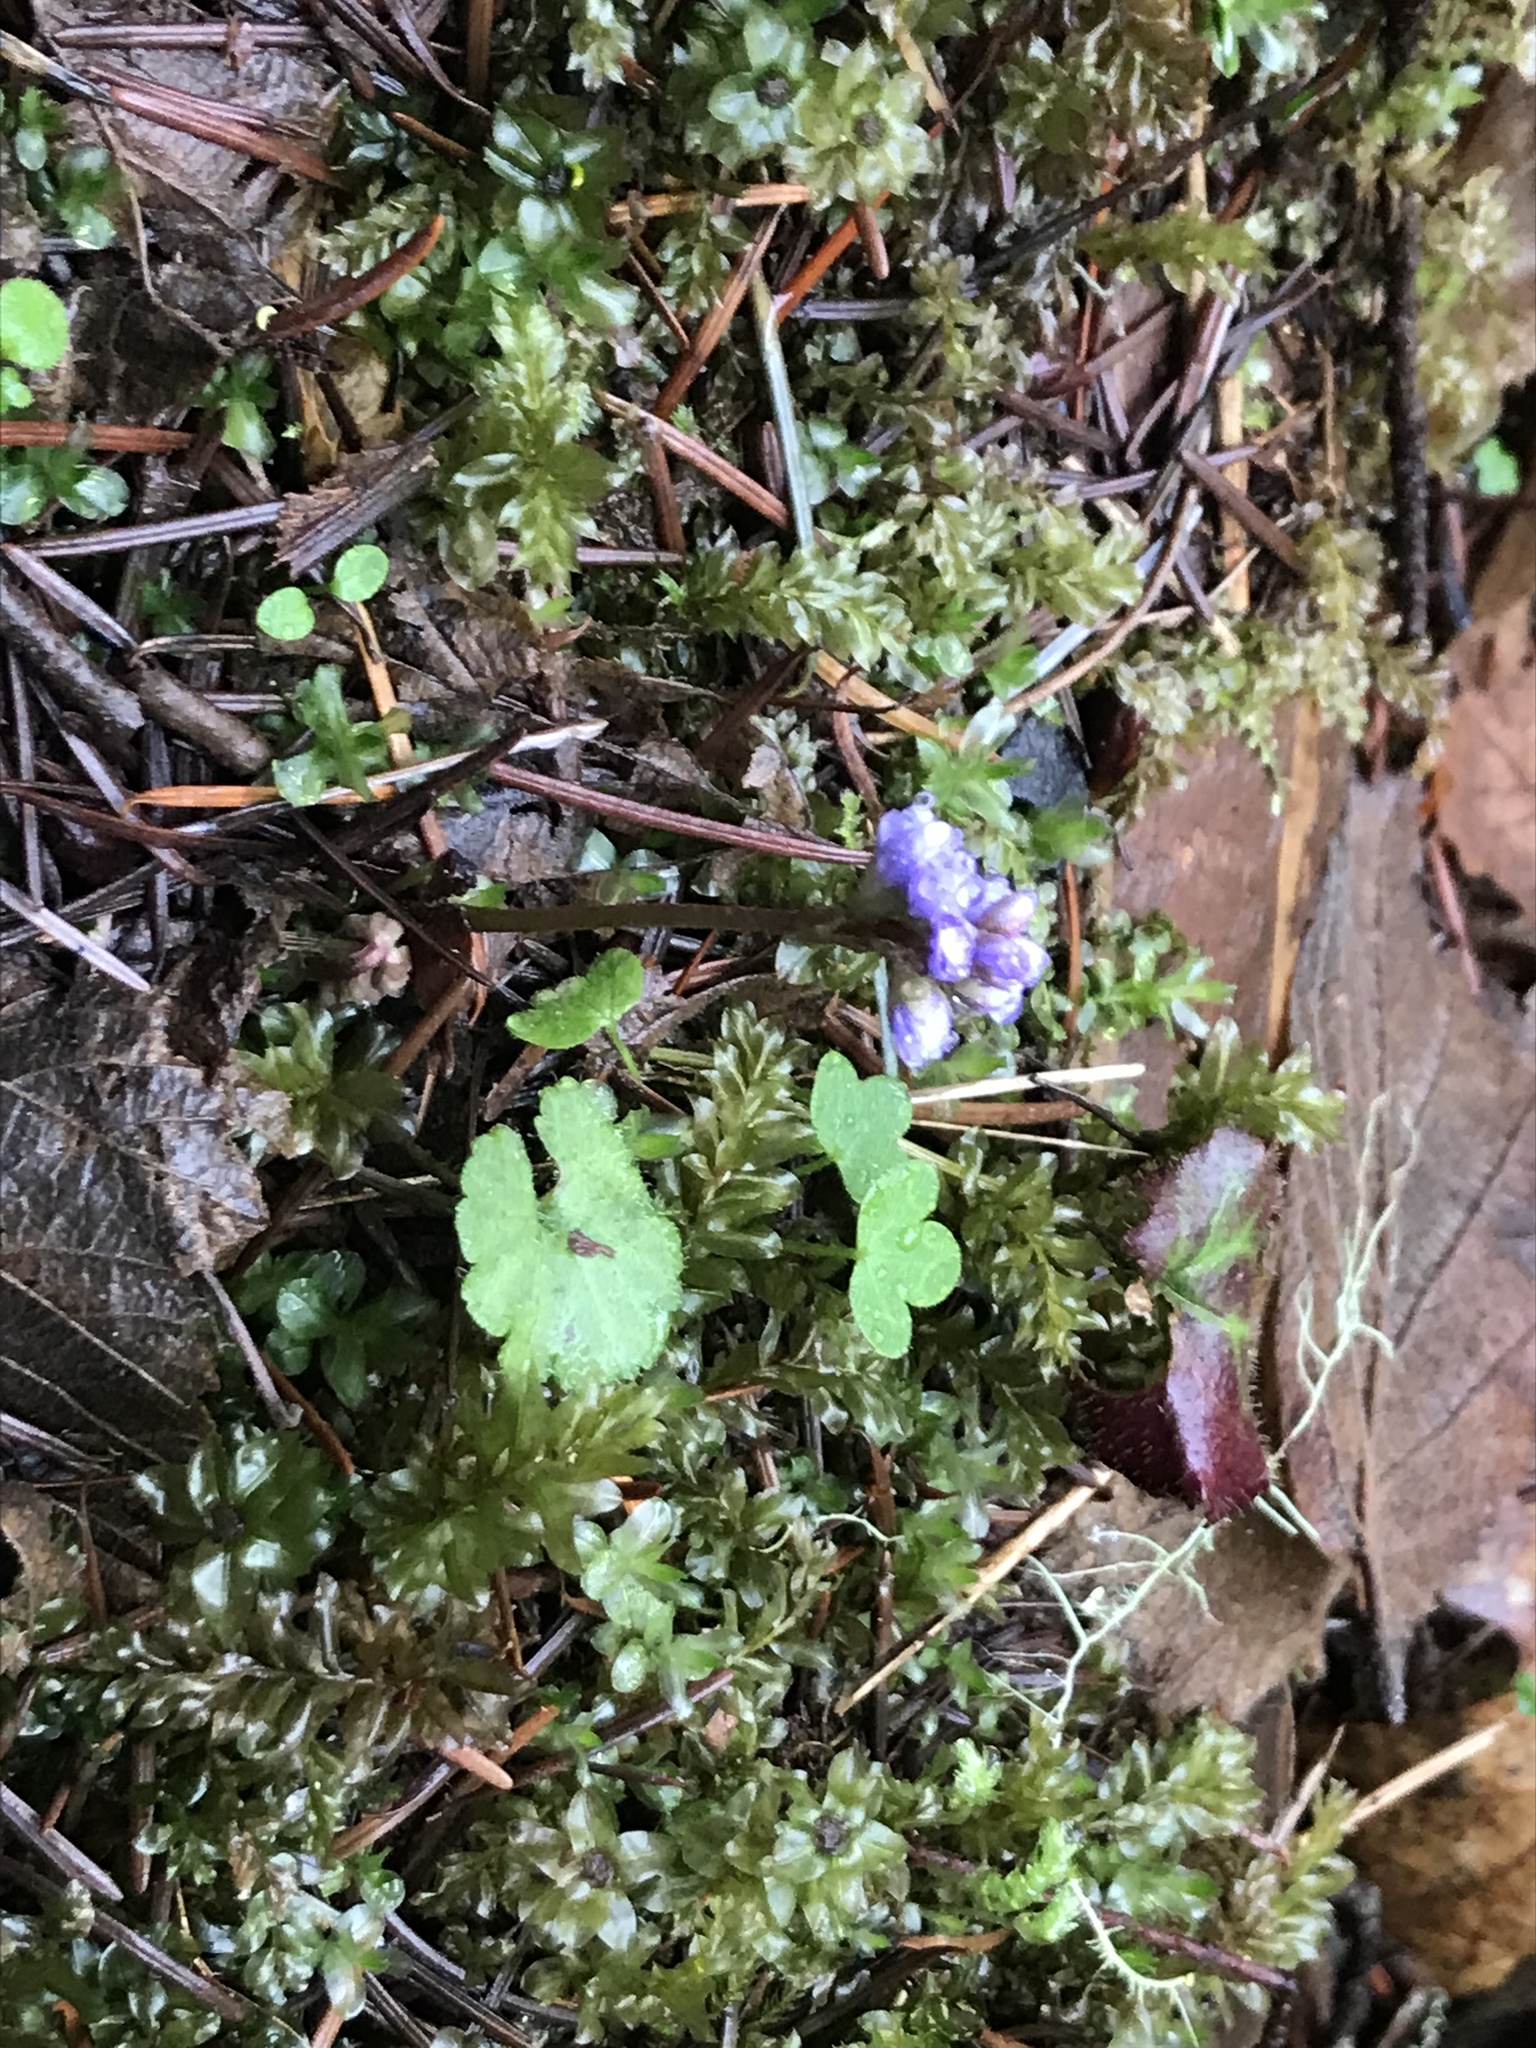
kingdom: Plantae
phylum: Tracheophyta
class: Magnoliopsida
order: Lamiales
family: Plantaginaceae
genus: Synthyris
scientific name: Synthyris reniformis
